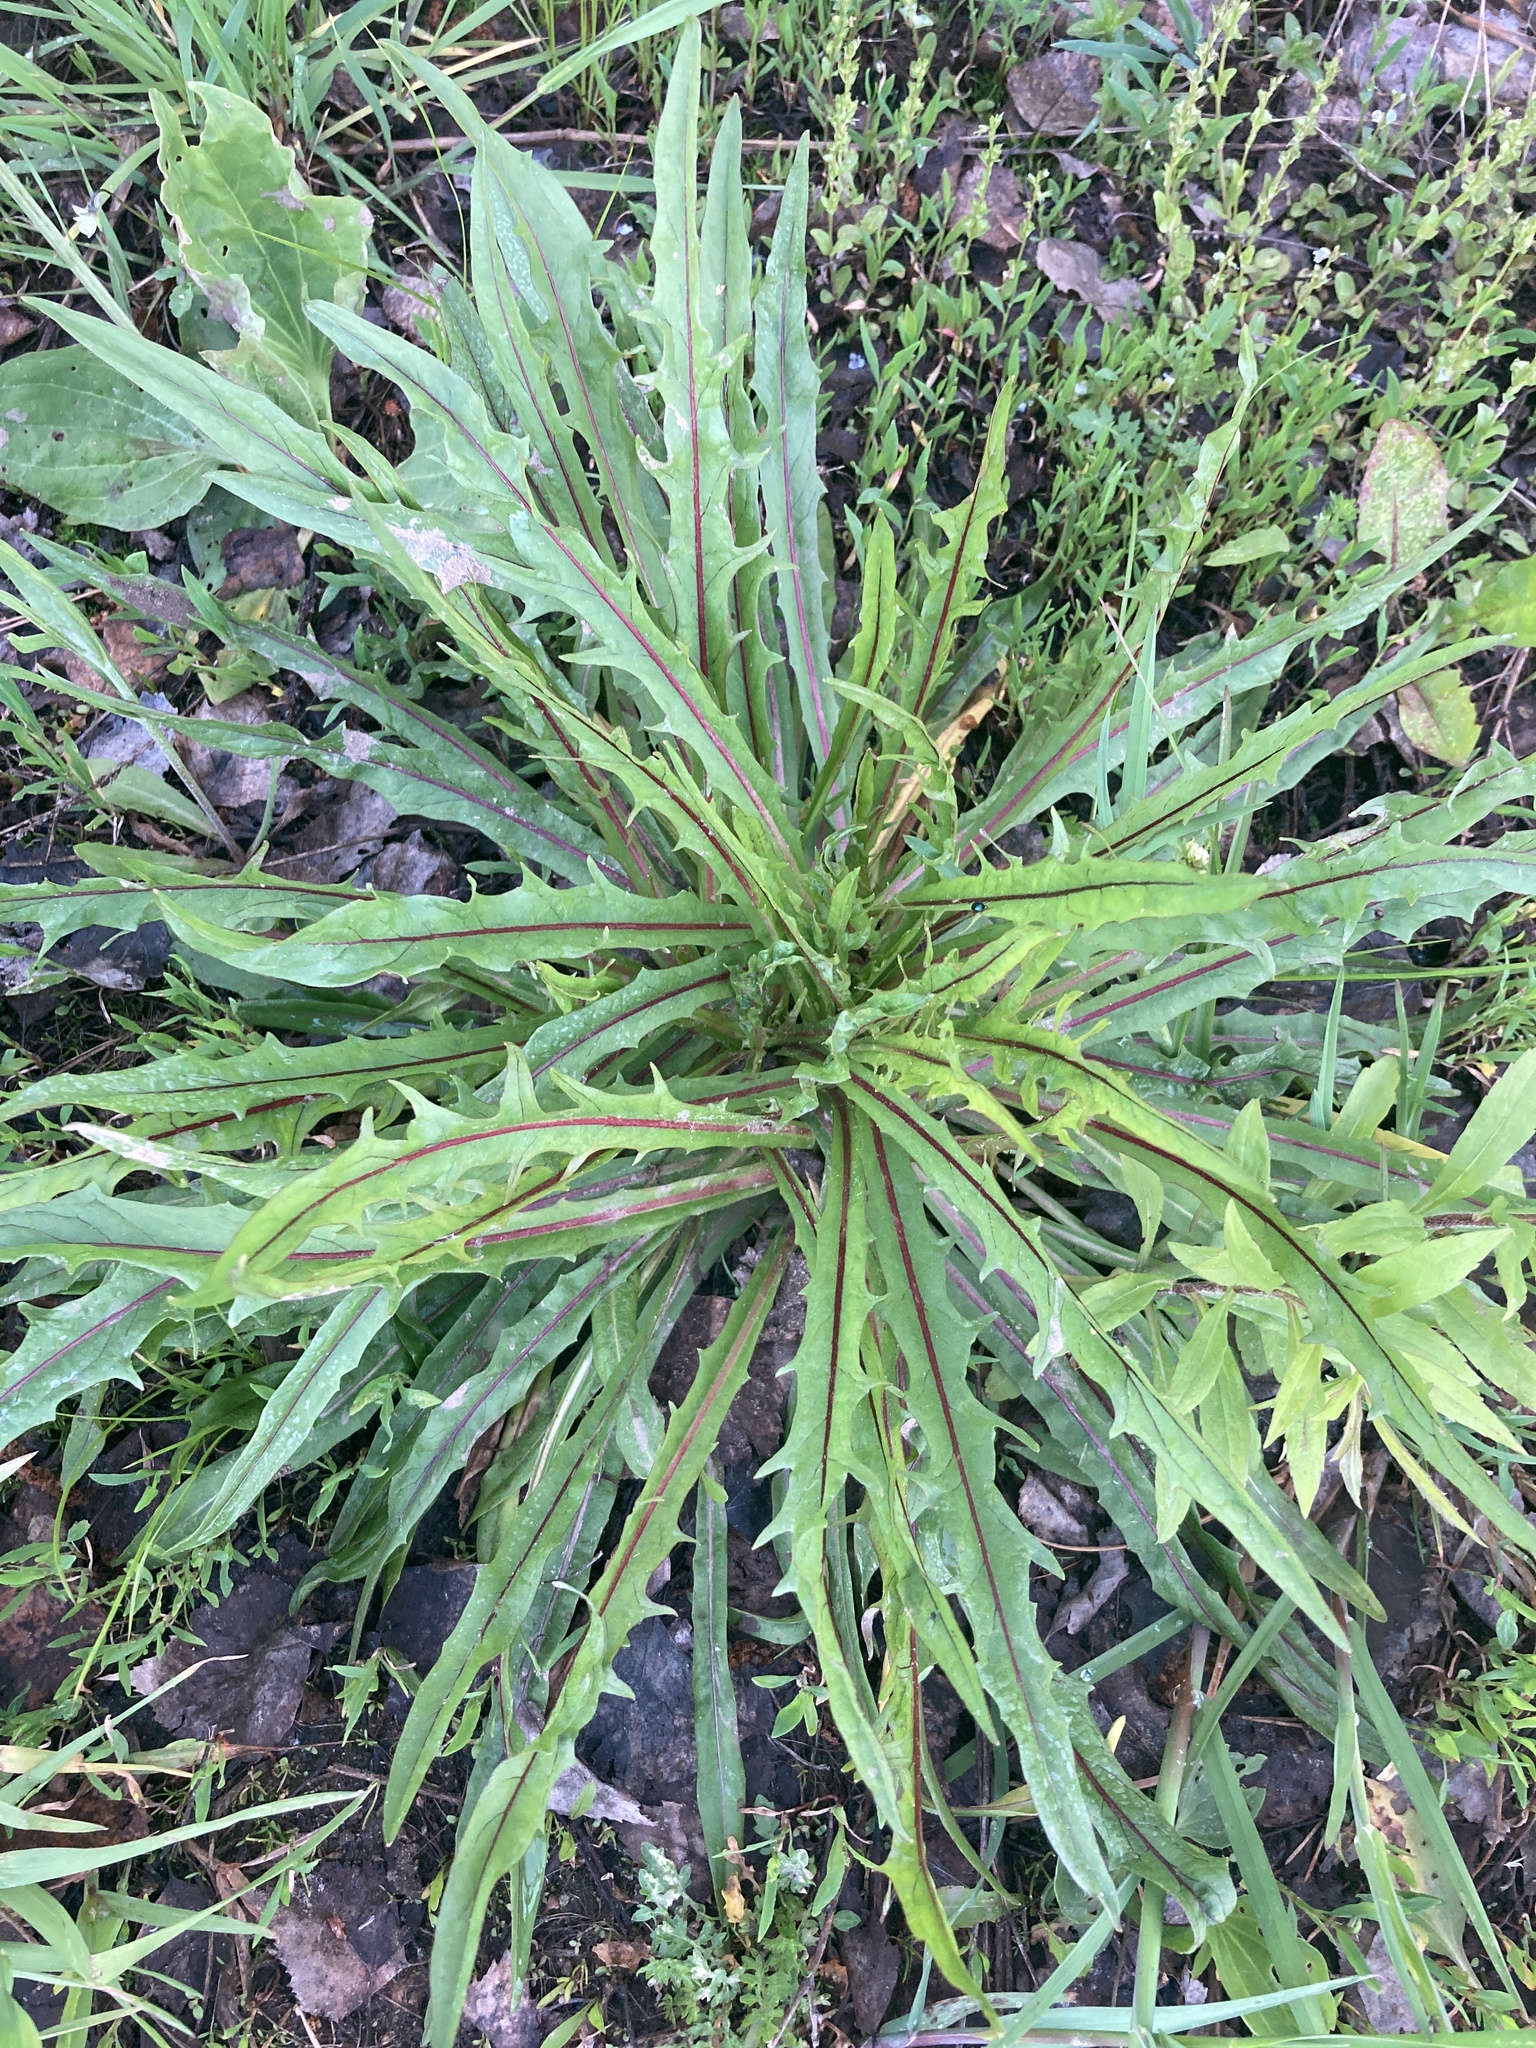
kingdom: Plantae
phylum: Tracheophyta
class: Magnoliopsida
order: Asterales
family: Asteraceae
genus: Scorzoneroides
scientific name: Scorzoneroides autumnalis
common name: Autumn hawkbit
